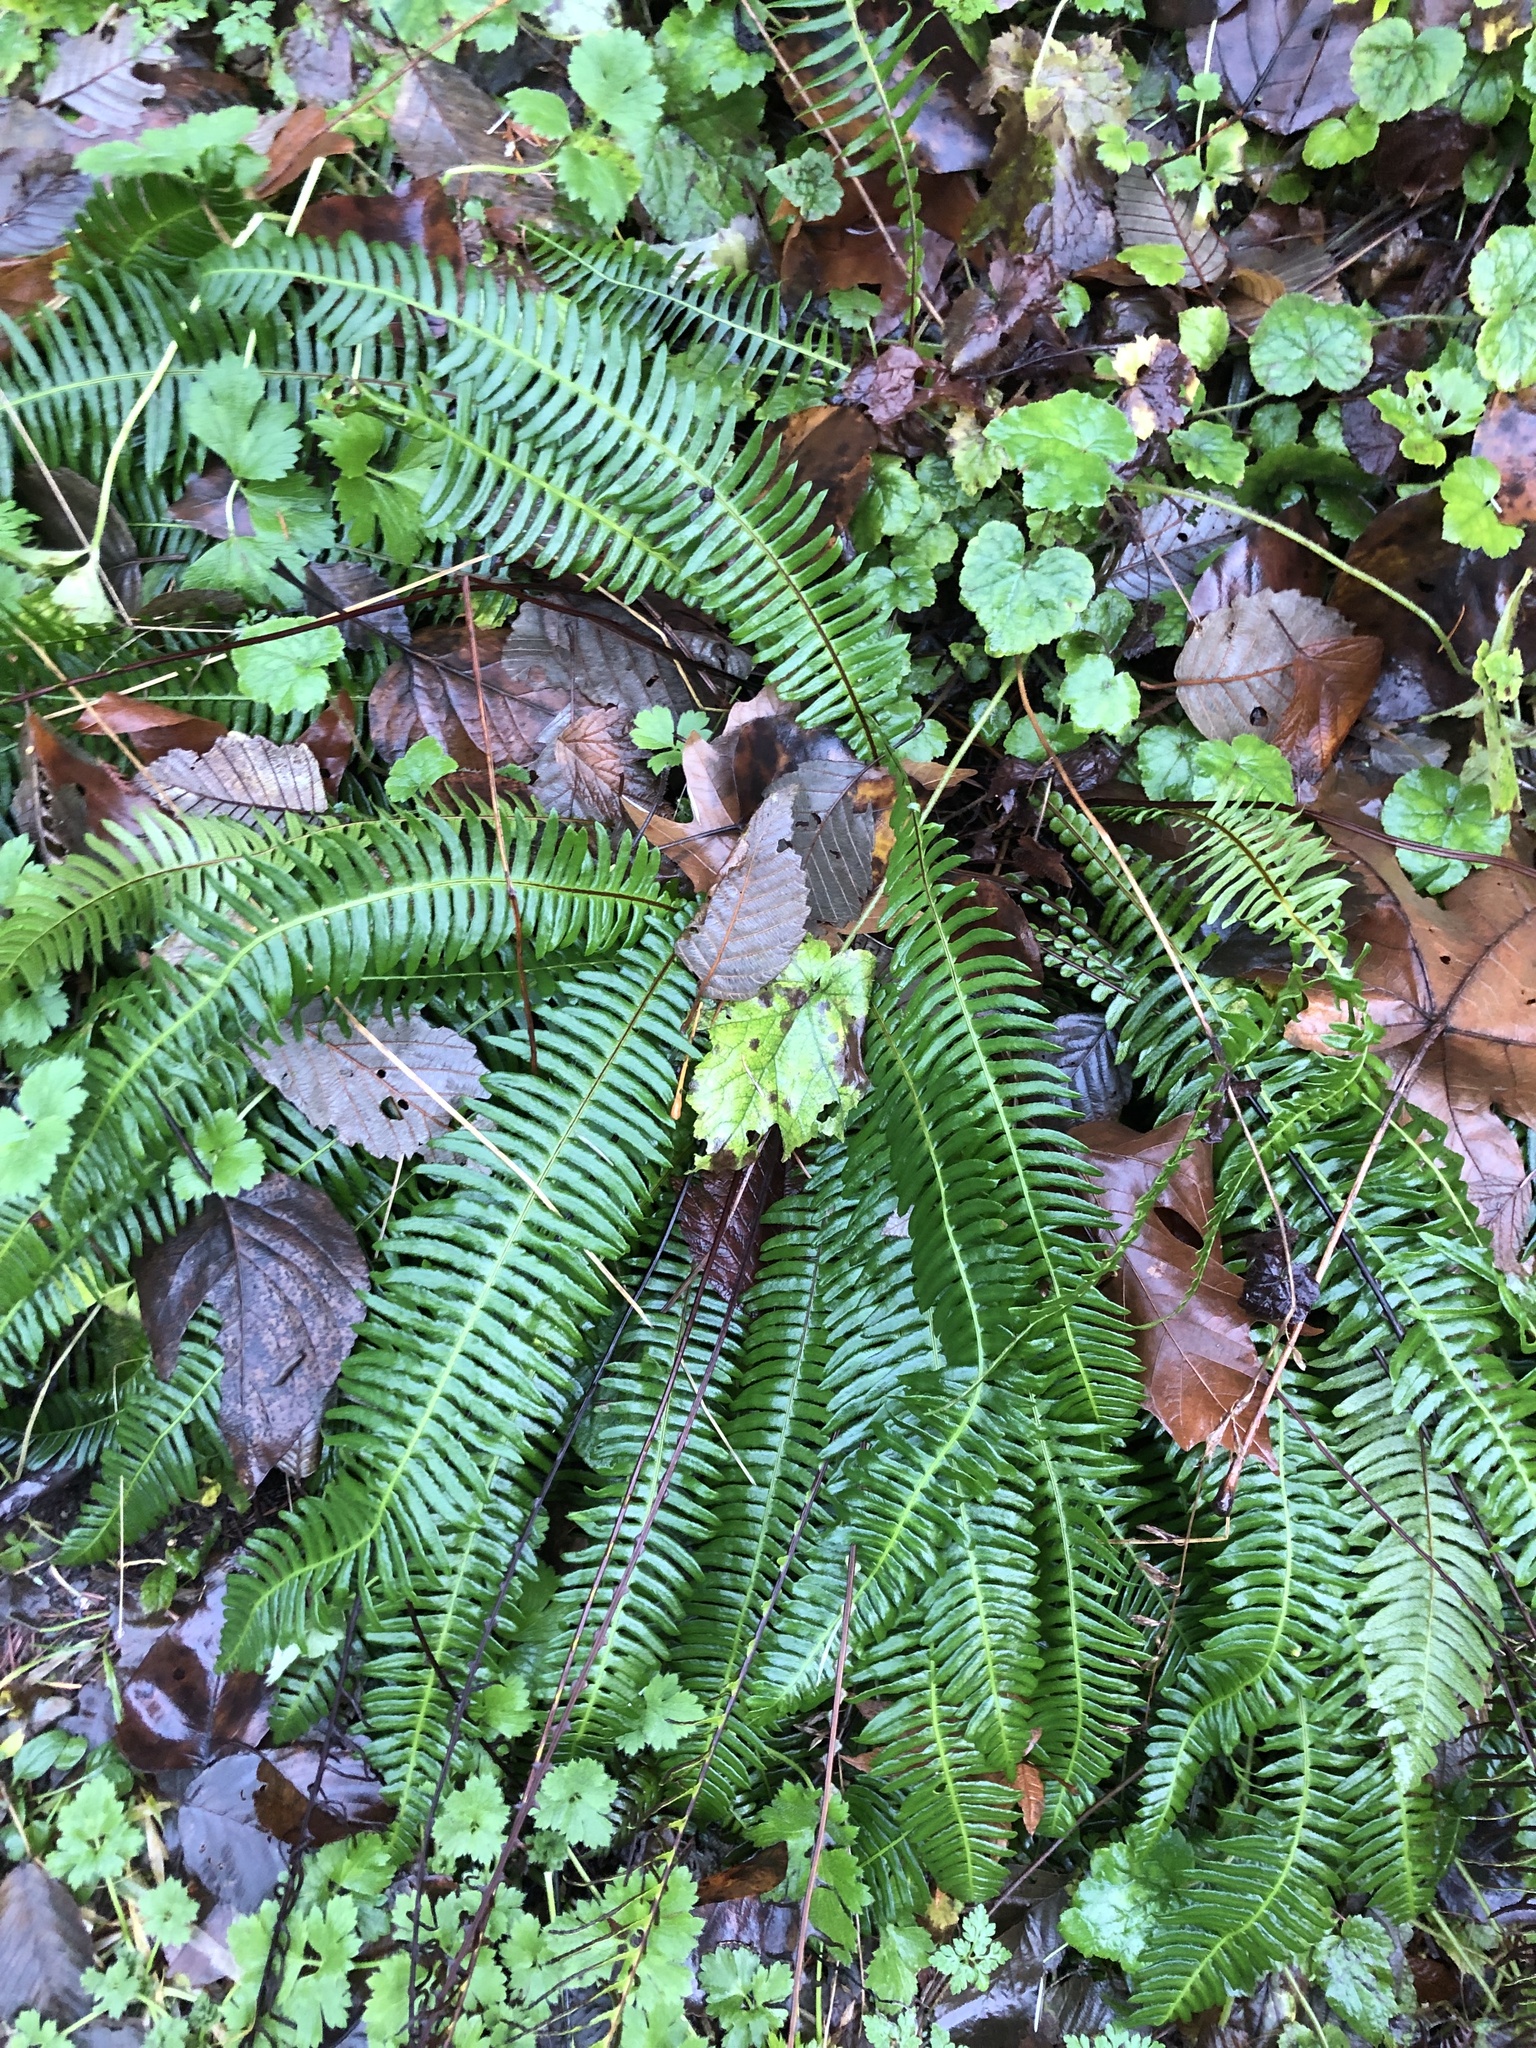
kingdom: Plantae
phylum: Tracheophyta
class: Polypodiopsida
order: Polypodiales
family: Blechnaceae
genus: Struthiopteris
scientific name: Struthiopteris spicant
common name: Deer fern
